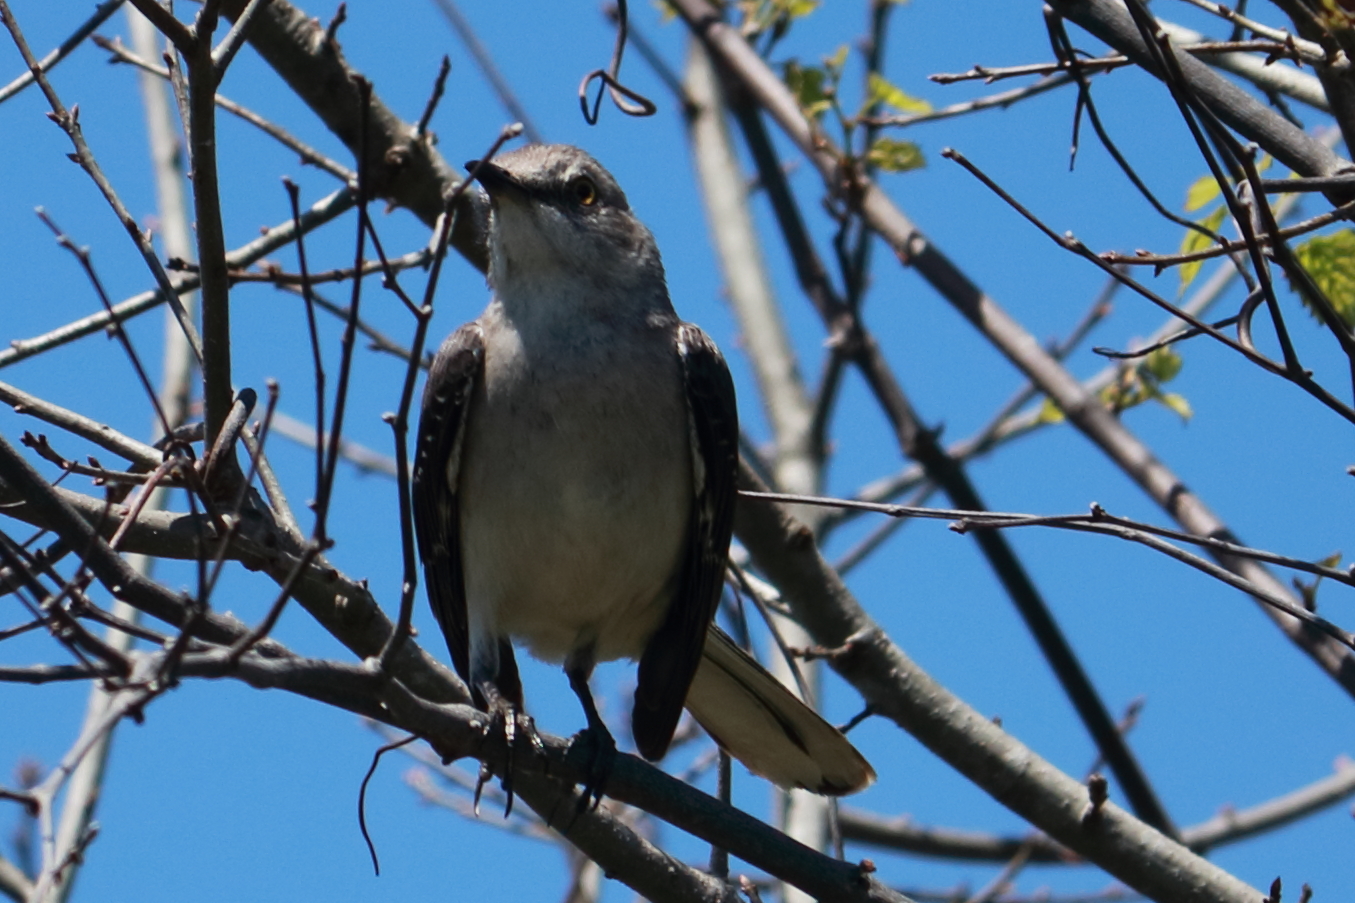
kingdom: Animalia
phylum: Chordata
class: Aves
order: Passeriformes
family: Mimidae
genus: Mimus
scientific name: Mimus polyglottos
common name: Northern mockingbird
